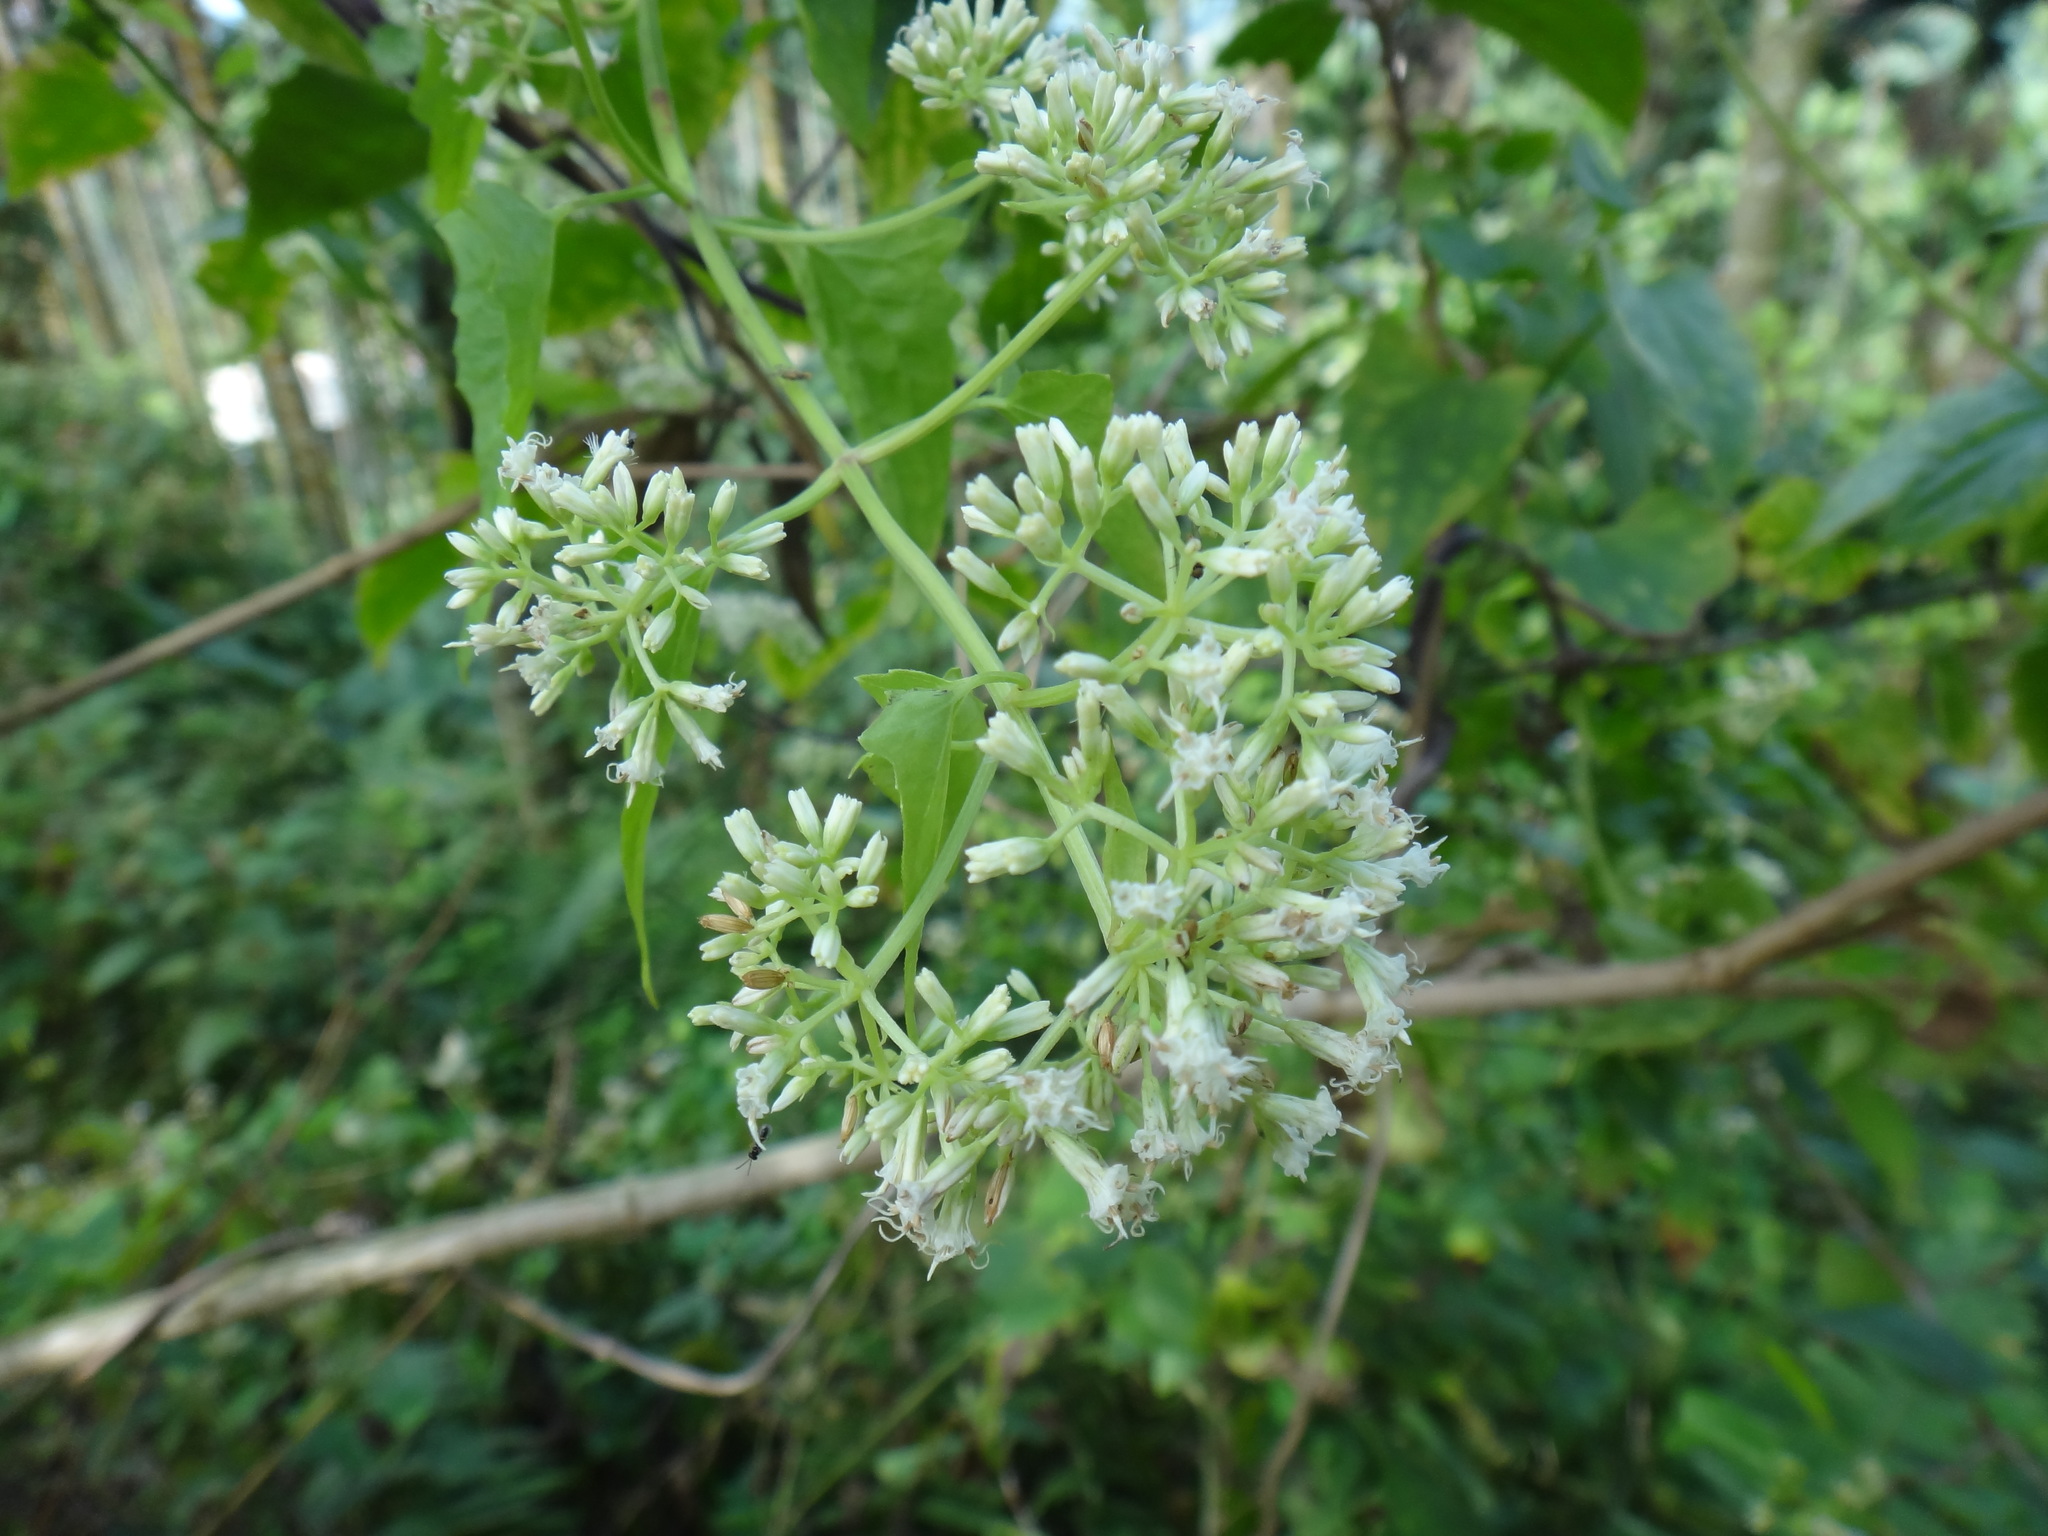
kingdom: Plantae
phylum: Tracheophyta
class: Magnoliopsida
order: Asterales
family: Asteraceae
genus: Mikania
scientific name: Mikania micrantha
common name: Mile-a-minute
